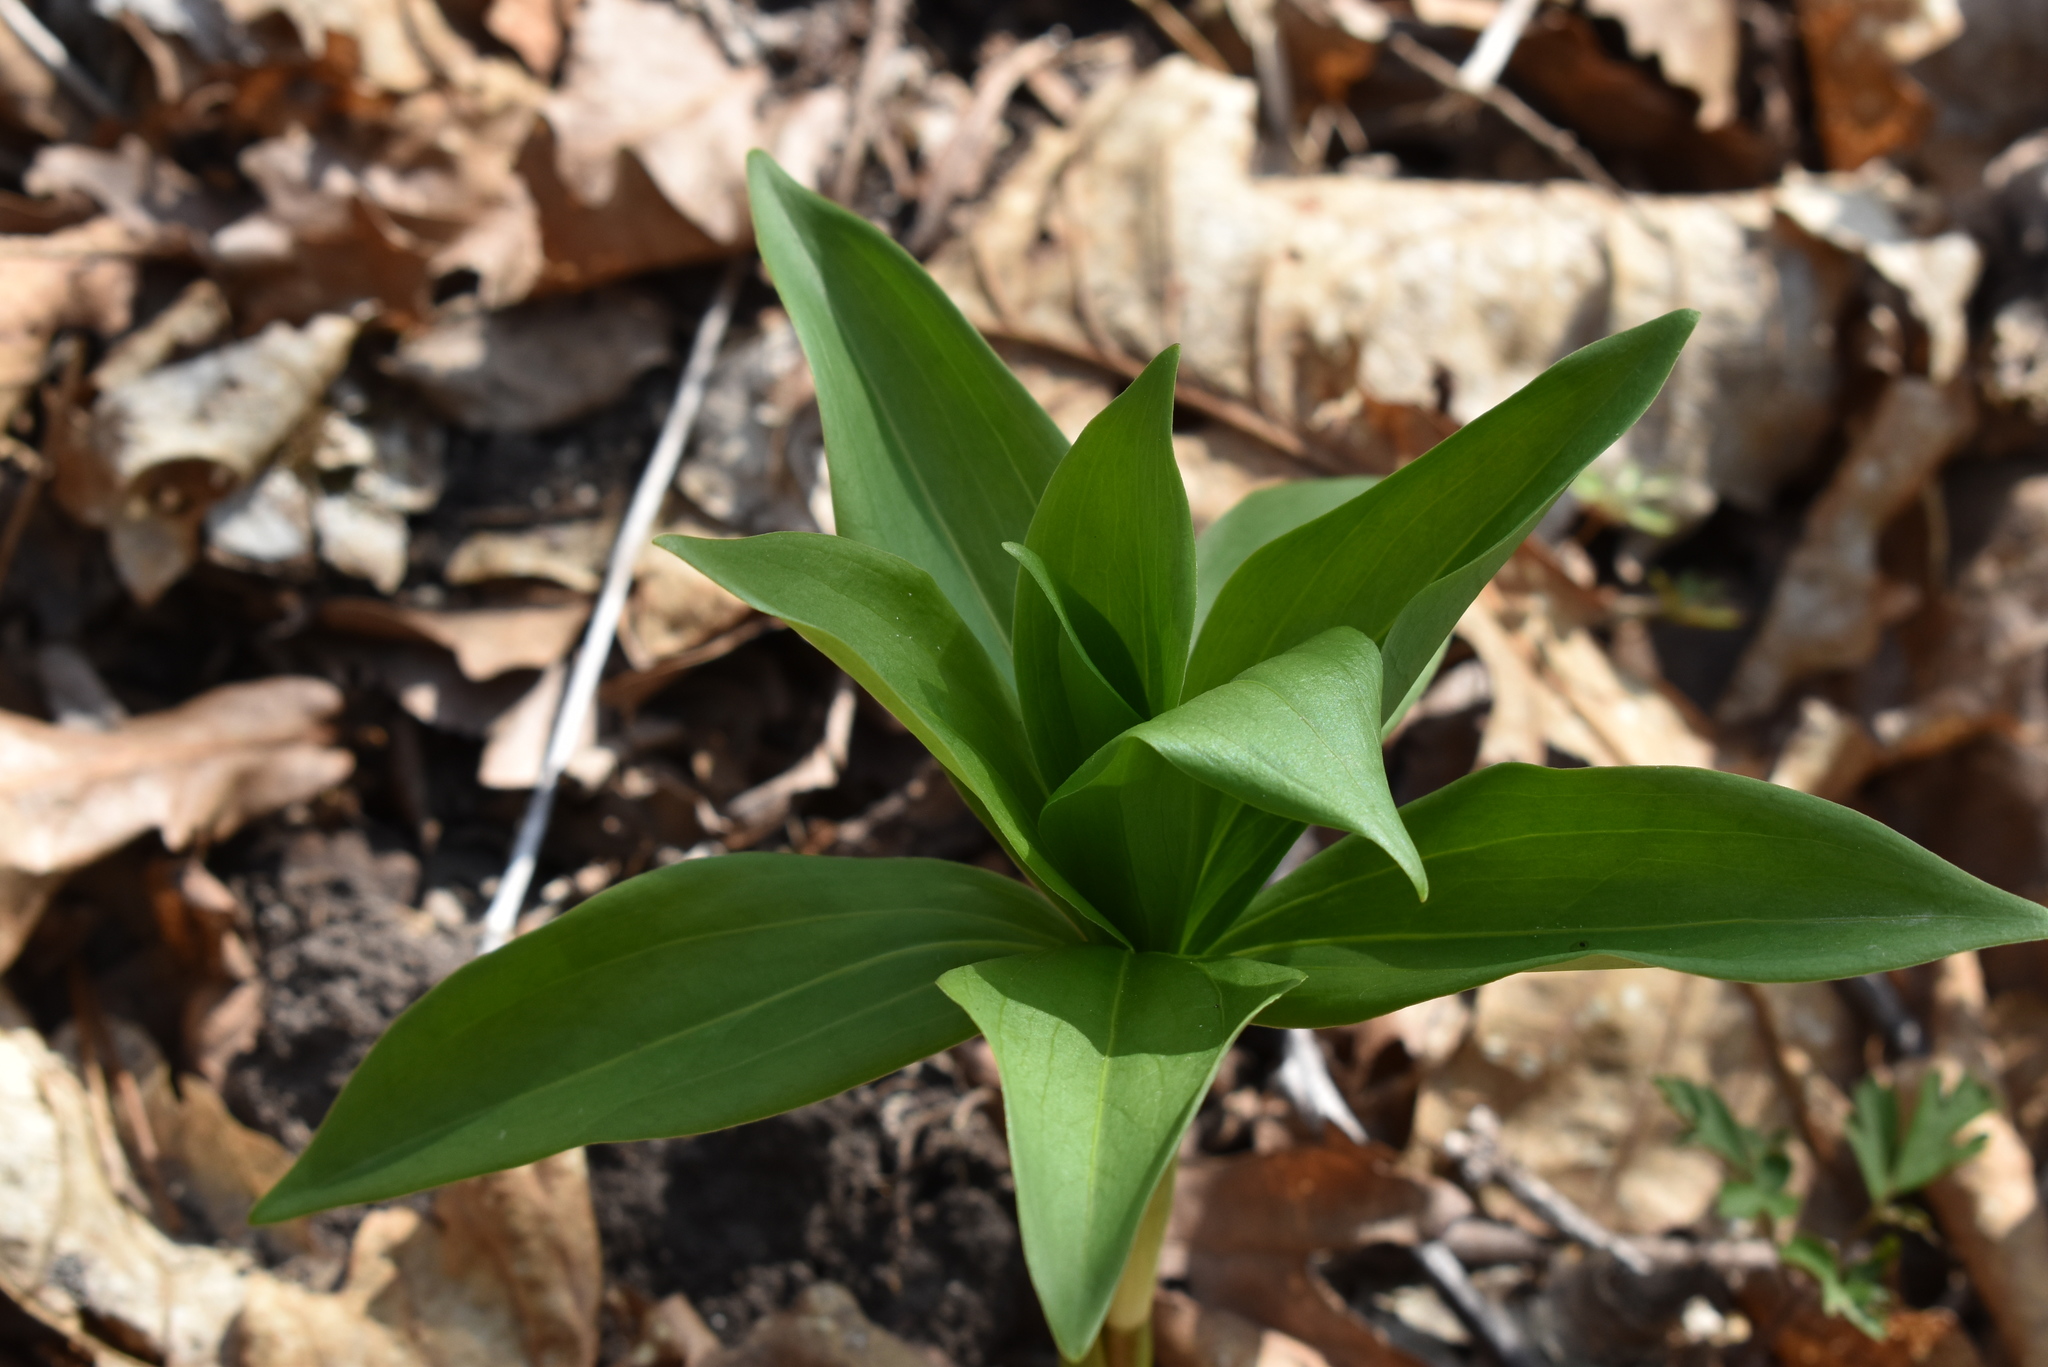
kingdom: Plantae
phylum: Tracheophyta
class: Liliopsida
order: Liliales
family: Liliaceae
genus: Lilium
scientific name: Lilium distichum
